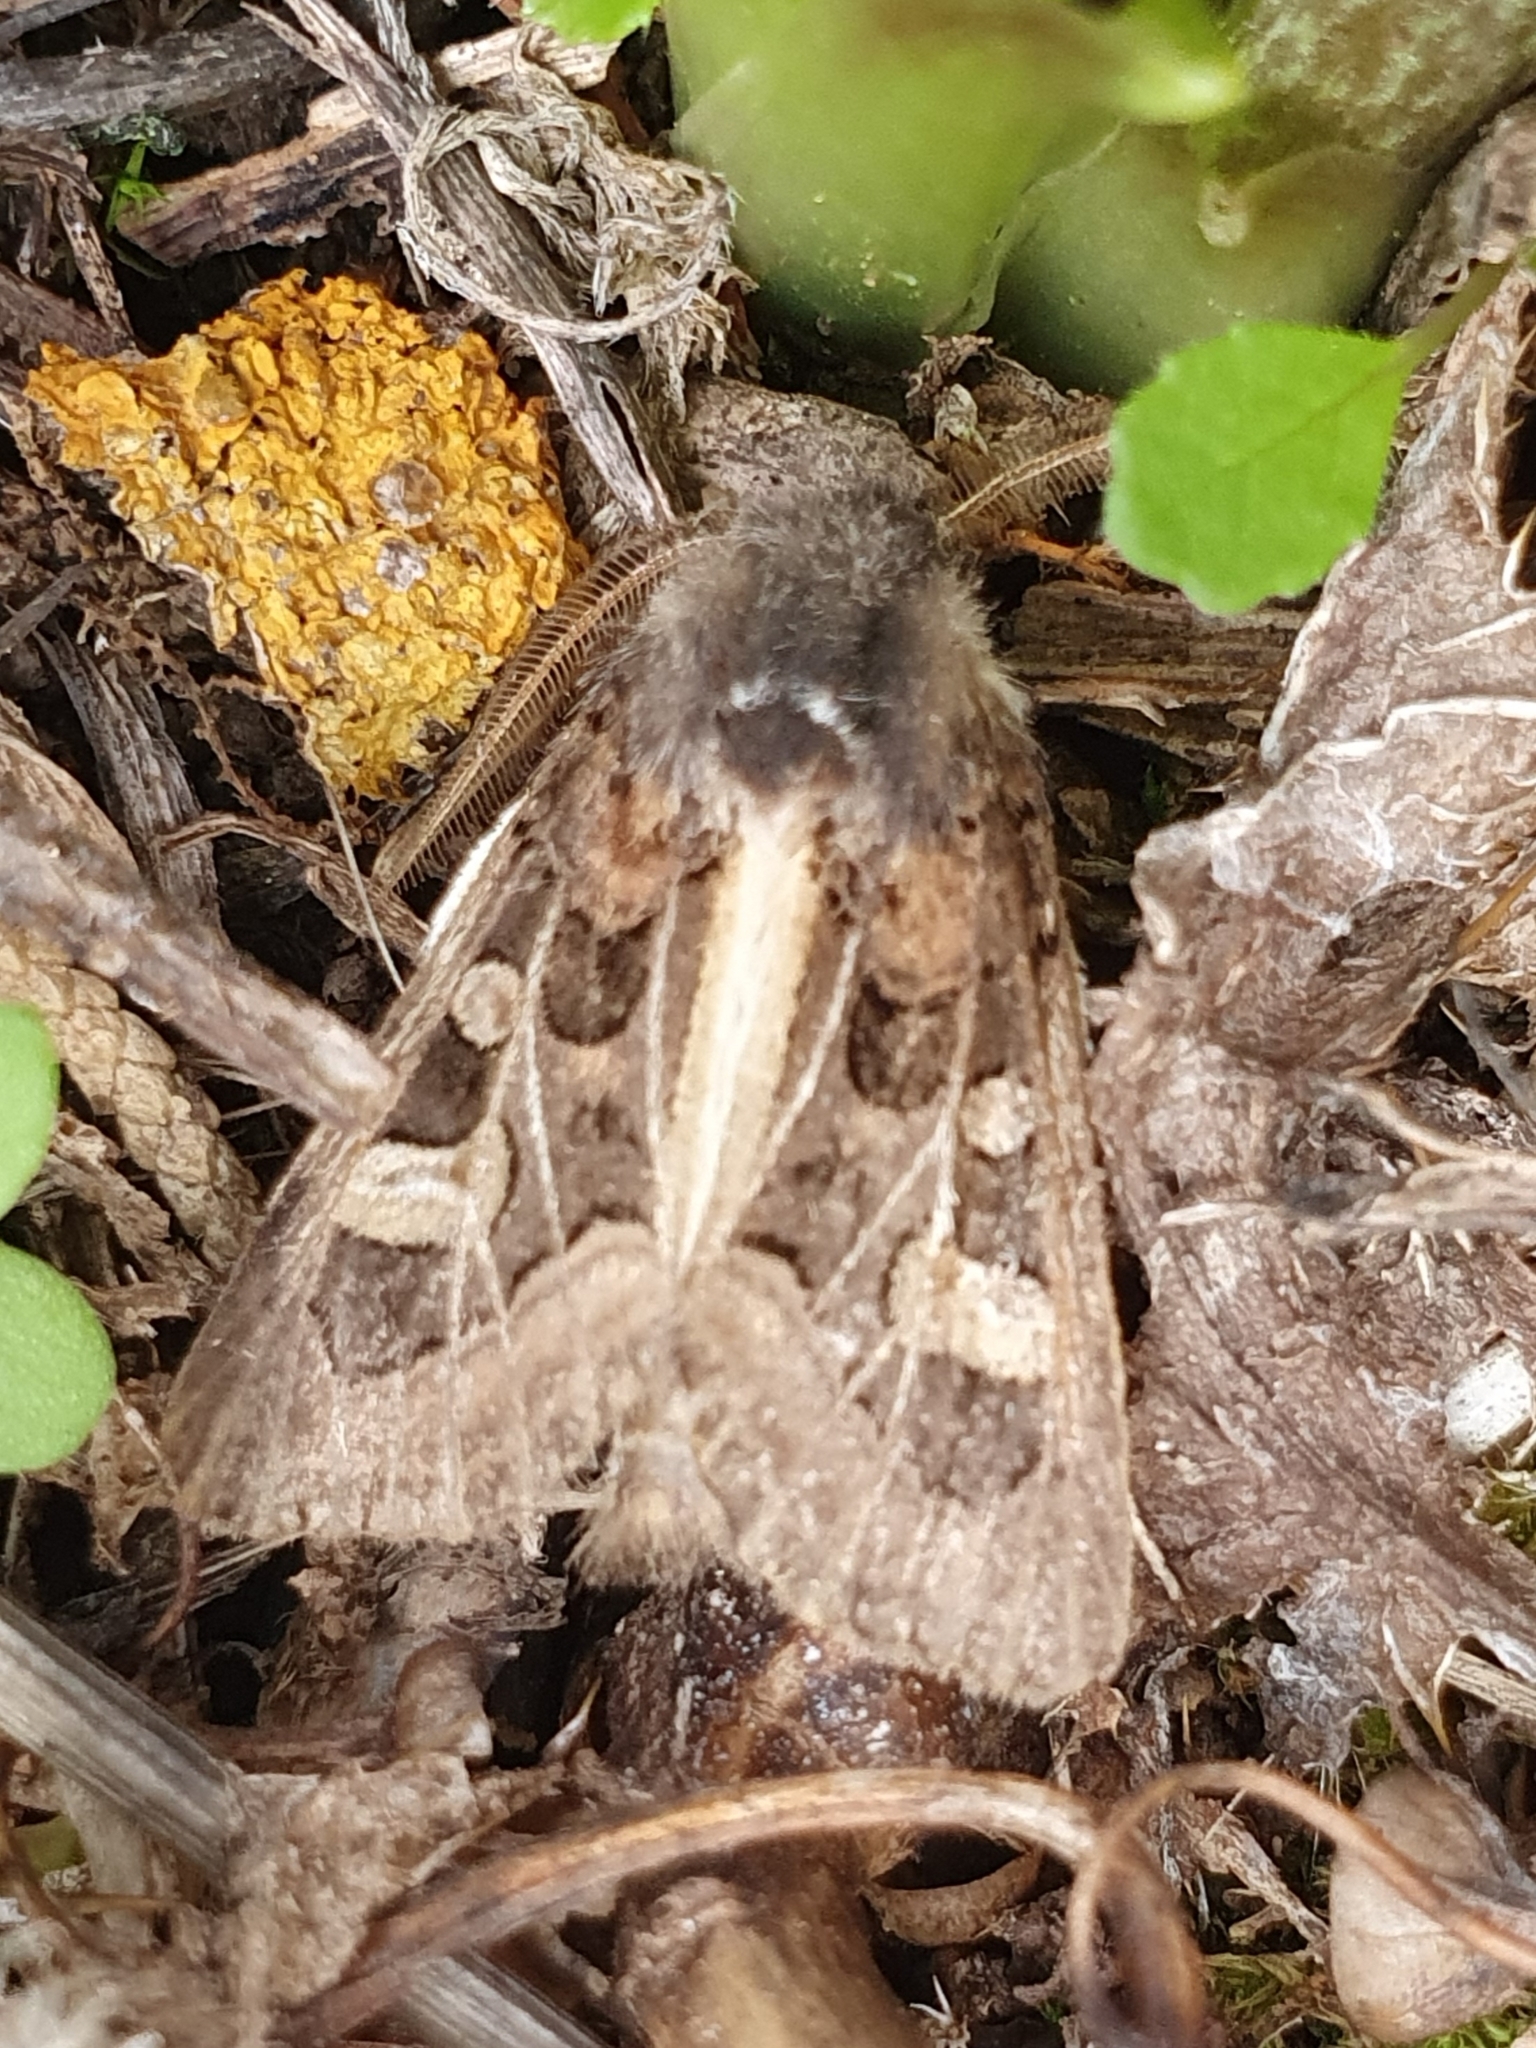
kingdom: Animalia
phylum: Arthropoda
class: Insecta
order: Lepidoptera
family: Noctuidae
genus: Leucochlaena
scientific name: Leucochlaena oditis
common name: Beautiful gothic
